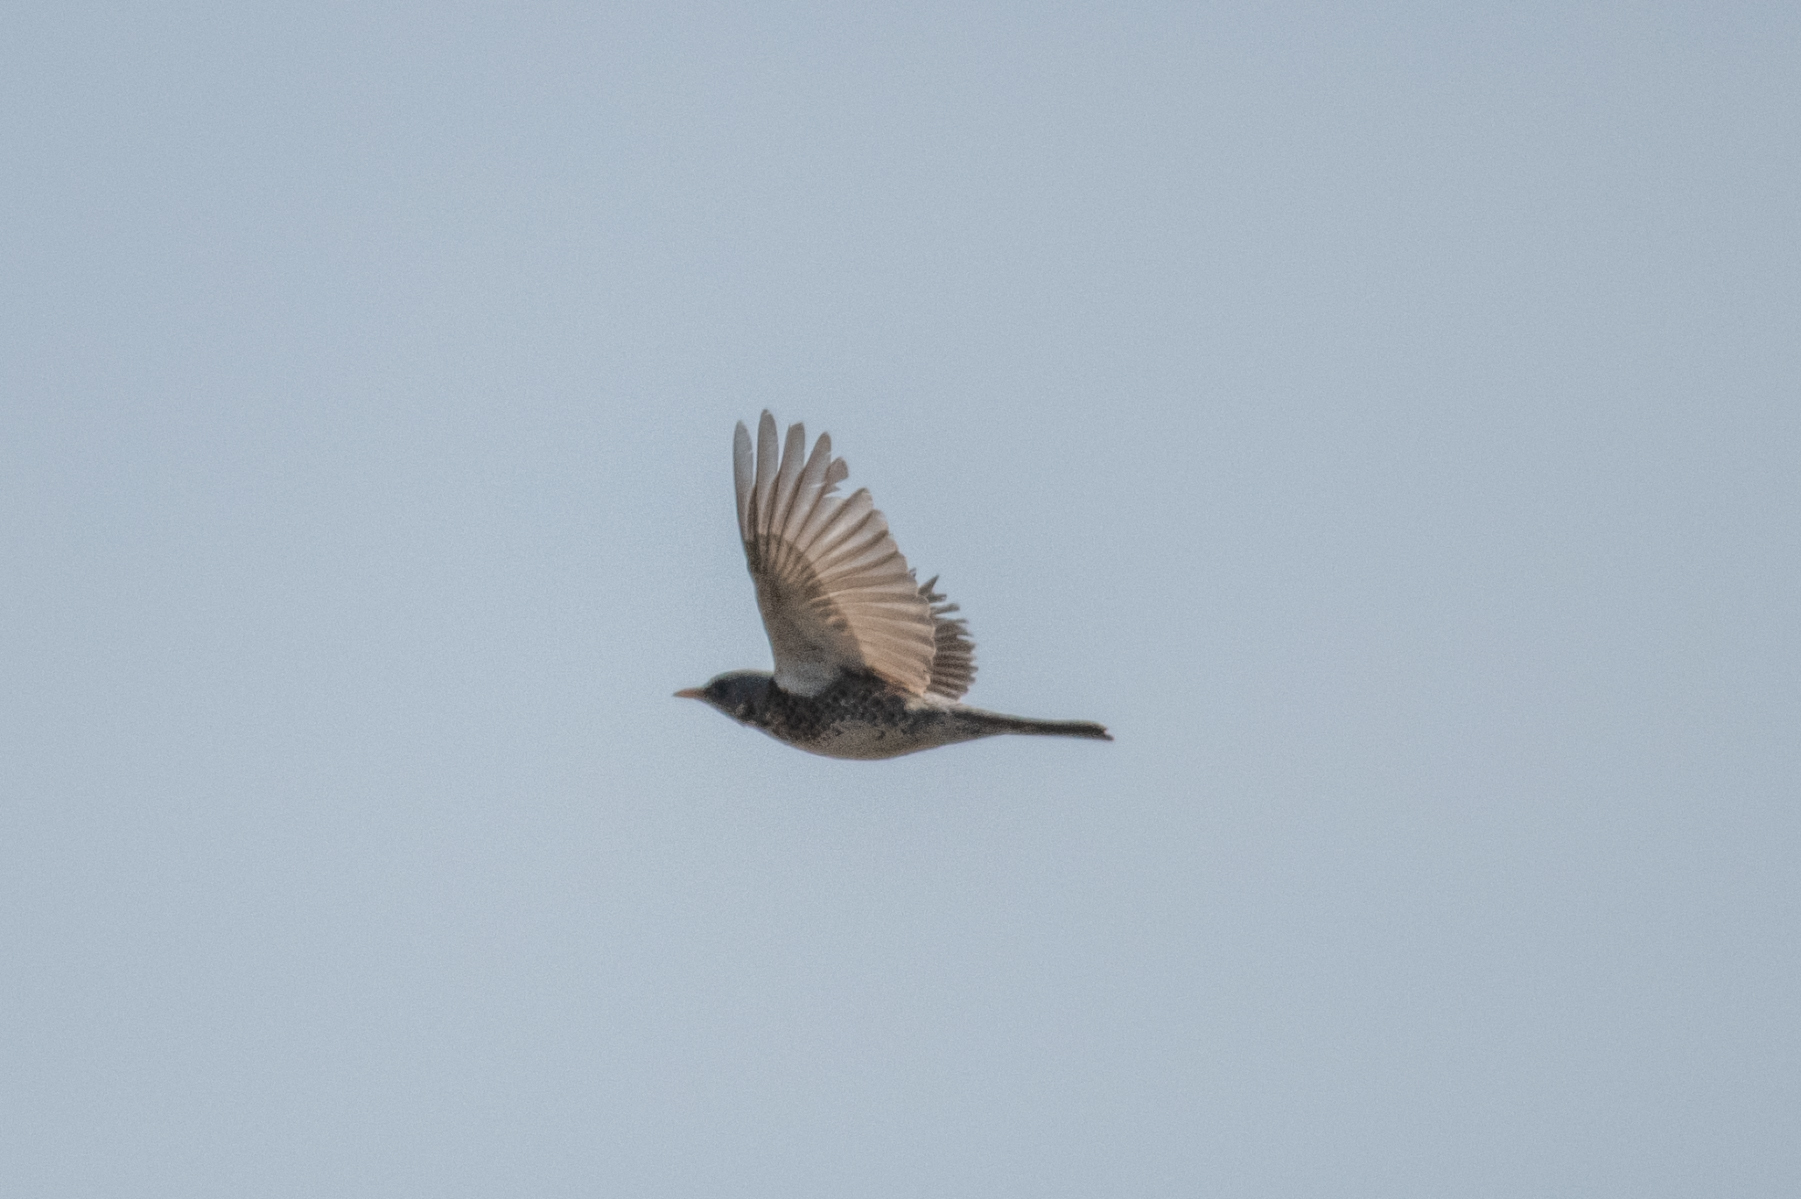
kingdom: Animalia
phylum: Chordata
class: Aves
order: Passeriformes
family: Turdidae
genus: Turdus
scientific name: Turdus pilaris
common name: Fieldfare
